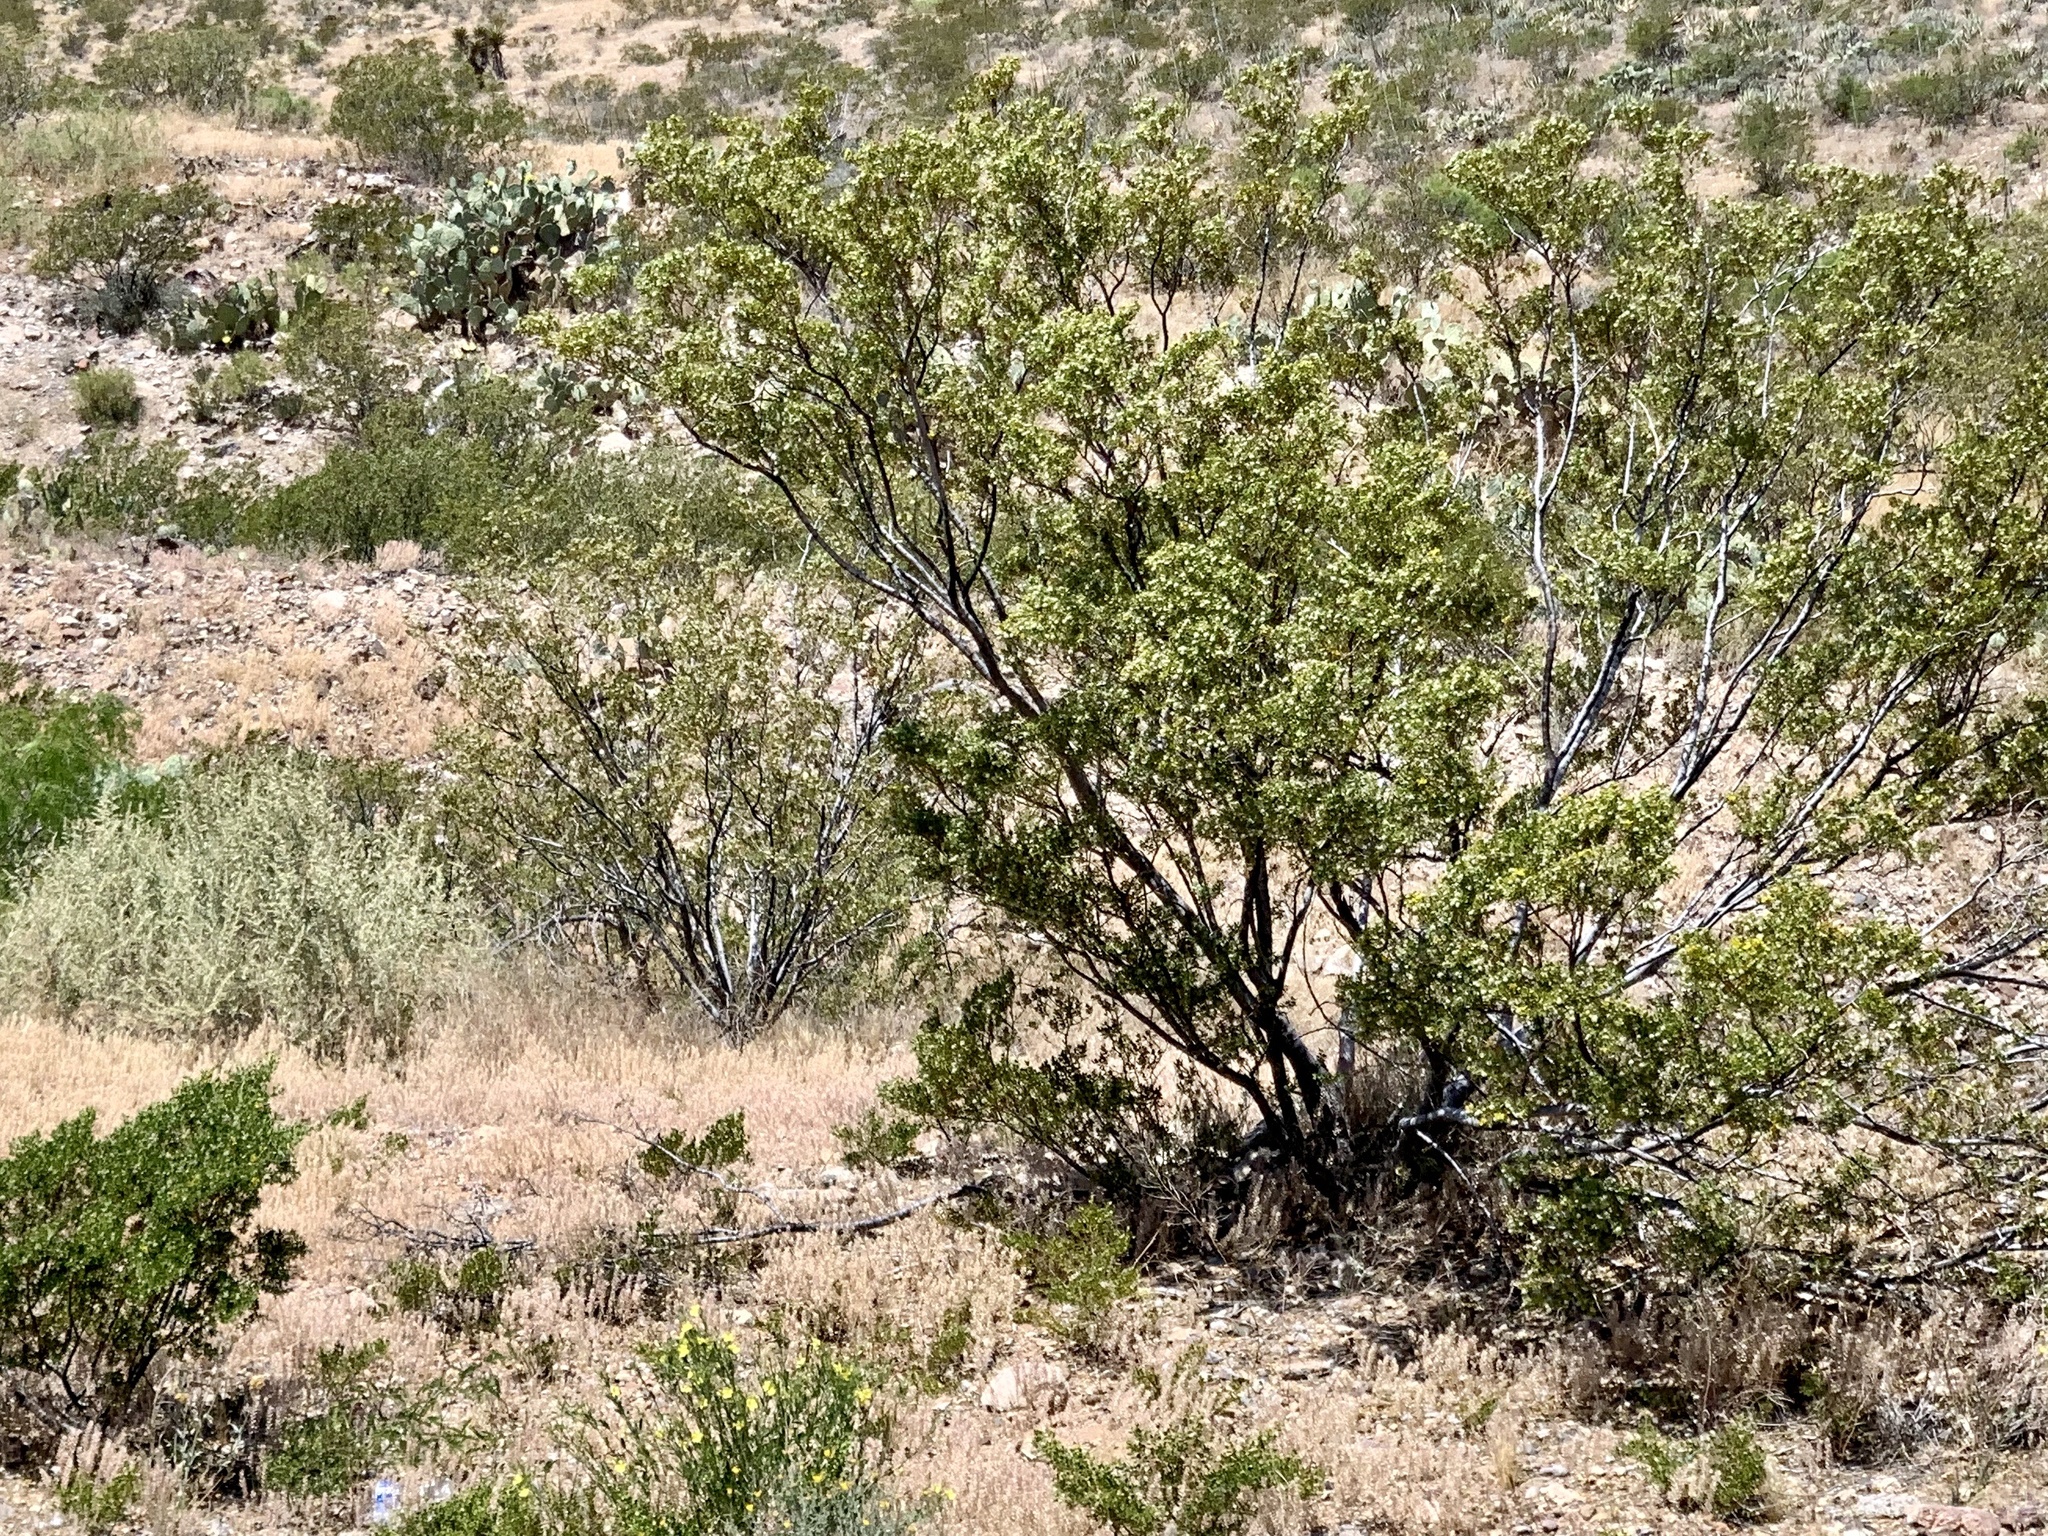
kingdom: Plantae
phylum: Tracheophyta
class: Magnoliopsida
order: Zygophyllales
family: Zygophyllaceae
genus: Larrea
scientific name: Larrea tridentata
